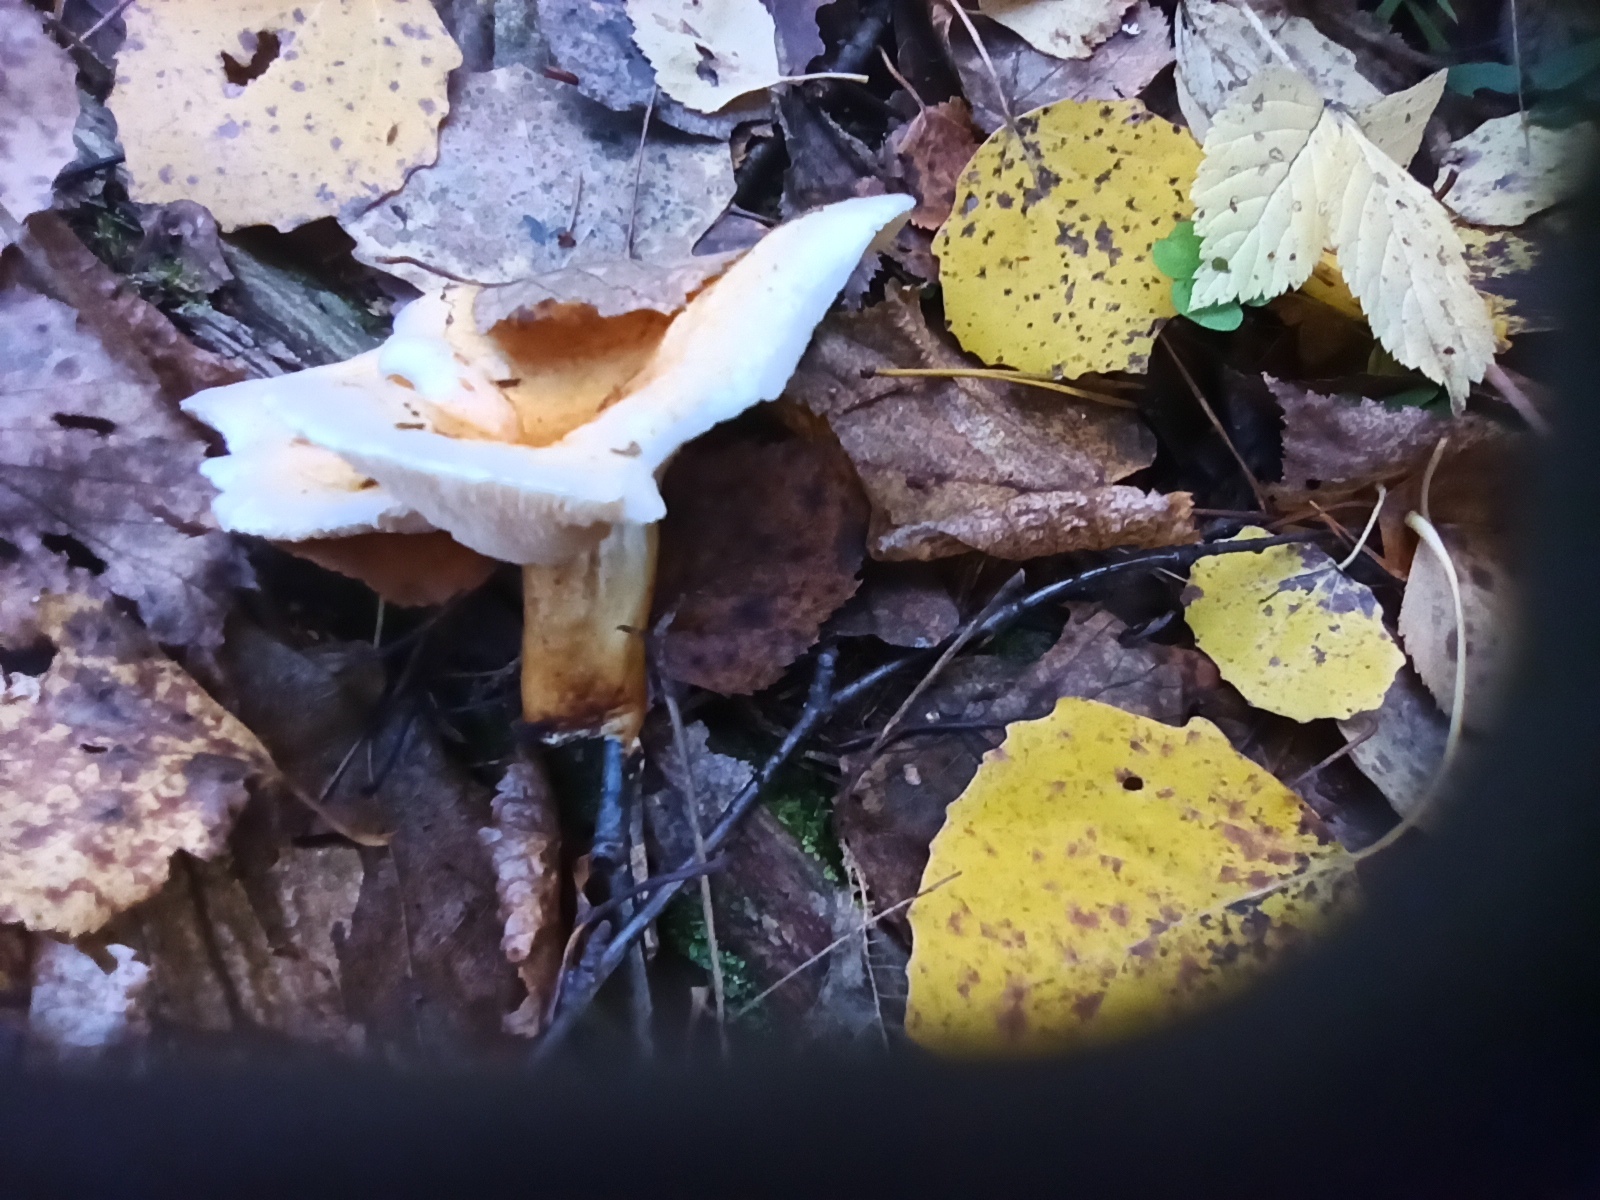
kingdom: Fungi
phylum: Basidiomycota
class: Agaricomycetes
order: Boletales
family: Hygrophoropsidaceae
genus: Hygrophoropsis
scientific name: Hygrophoropsis aurantiaca
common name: False chanterelle
